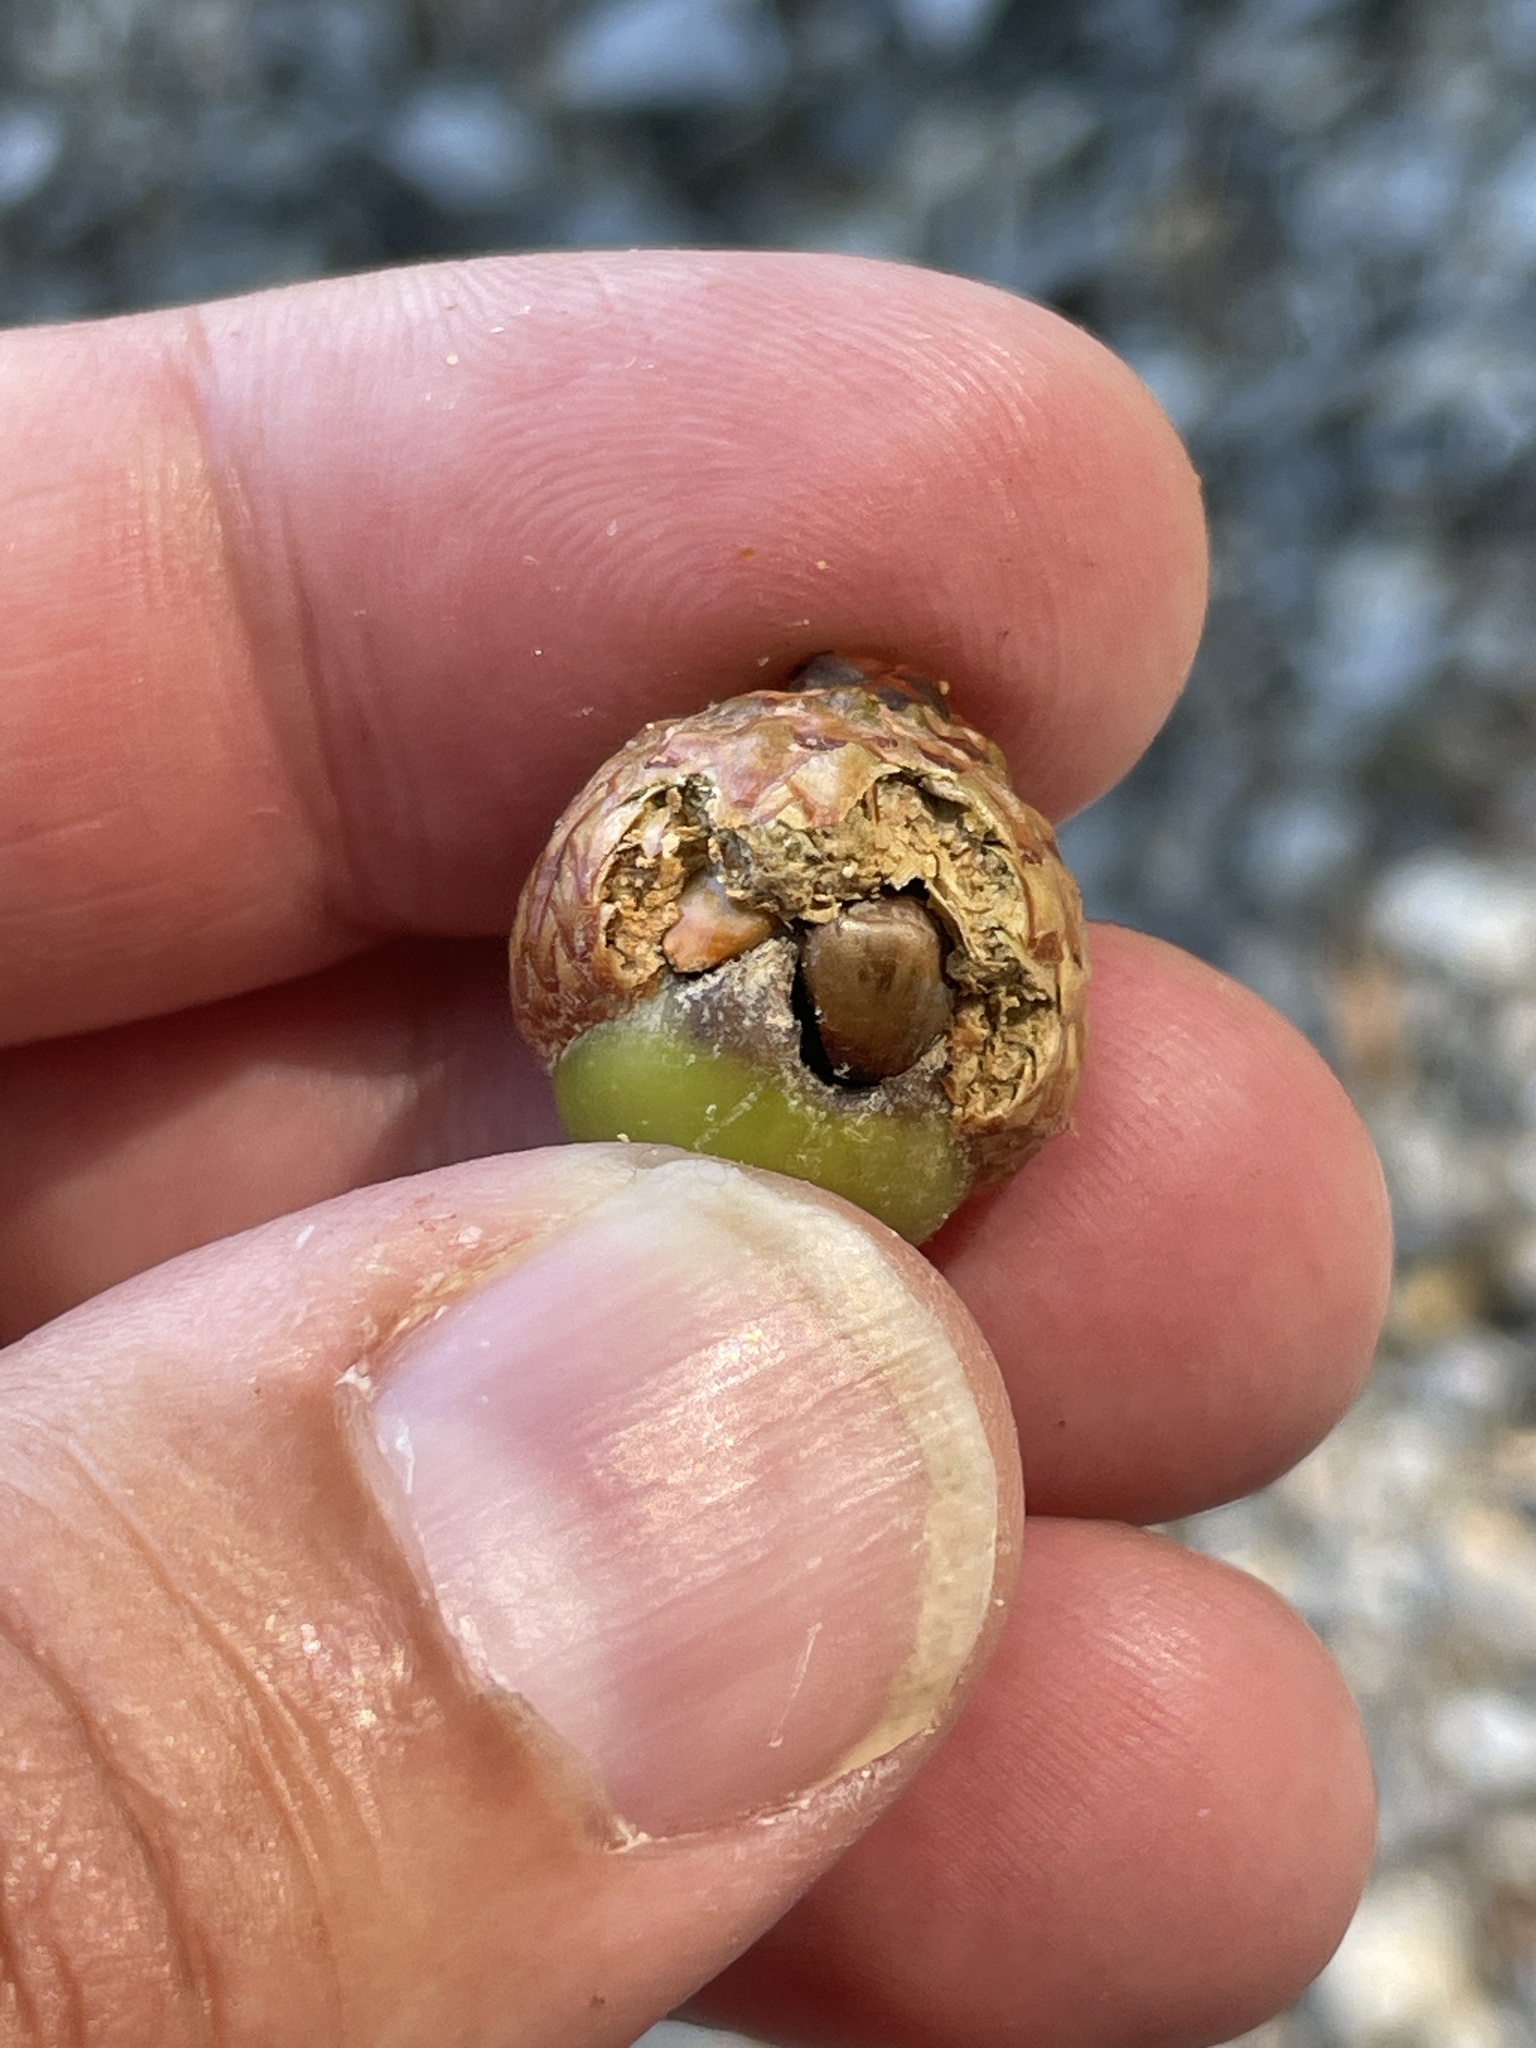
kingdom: Animalia
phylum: Arthropoda
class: Insecta
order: Hymenoptera
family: Cynipidae
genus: Callirhytis
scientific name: Callirhytis
